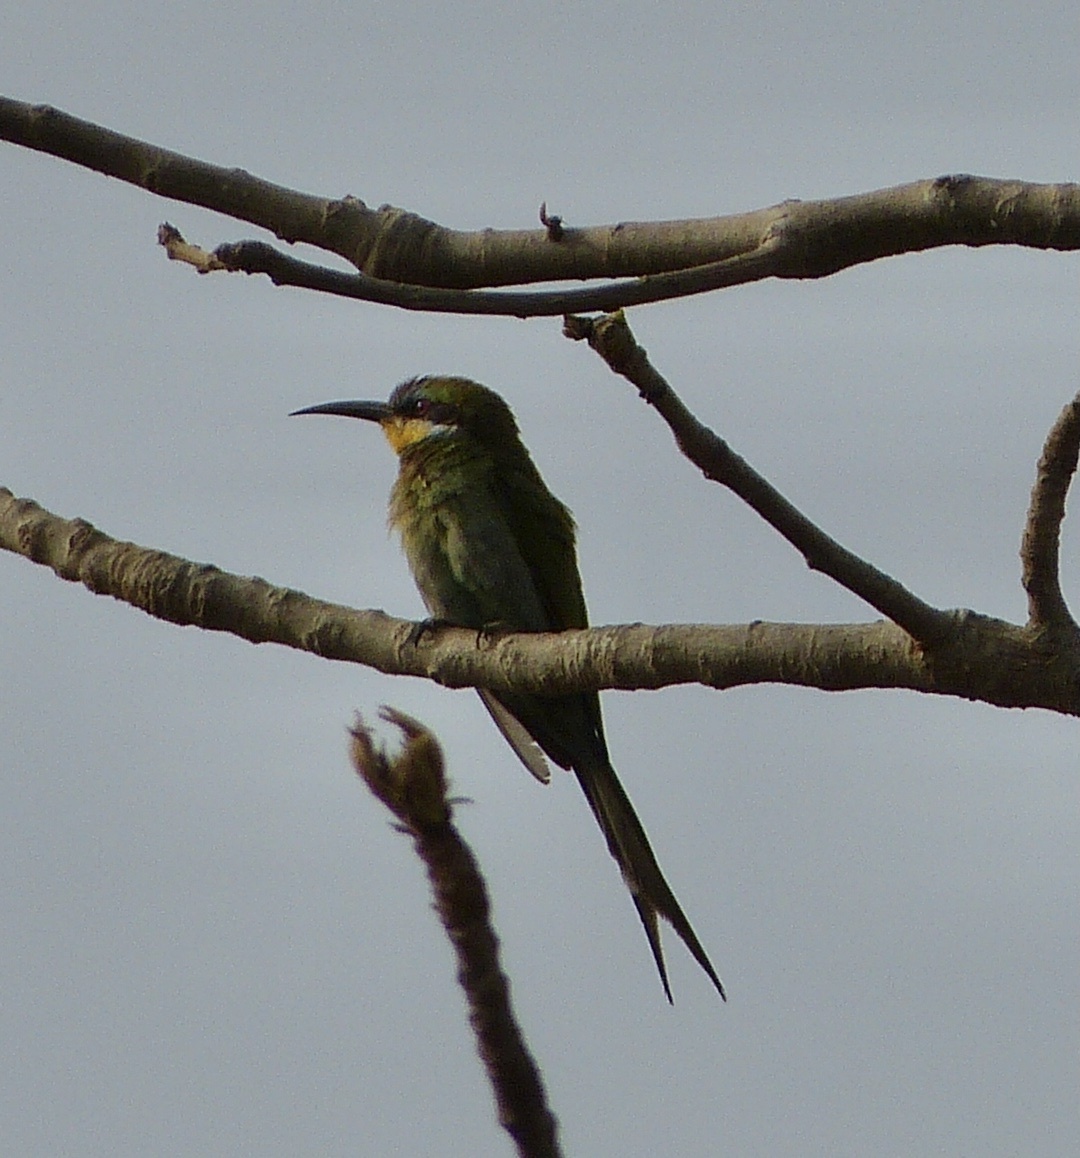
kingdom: Animalia
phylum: Chordata
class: Aves
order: Coraciiformes
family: Meropidae
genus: Merops
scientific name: Merops hirundineus
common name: Swallow-tailed bee-eater
